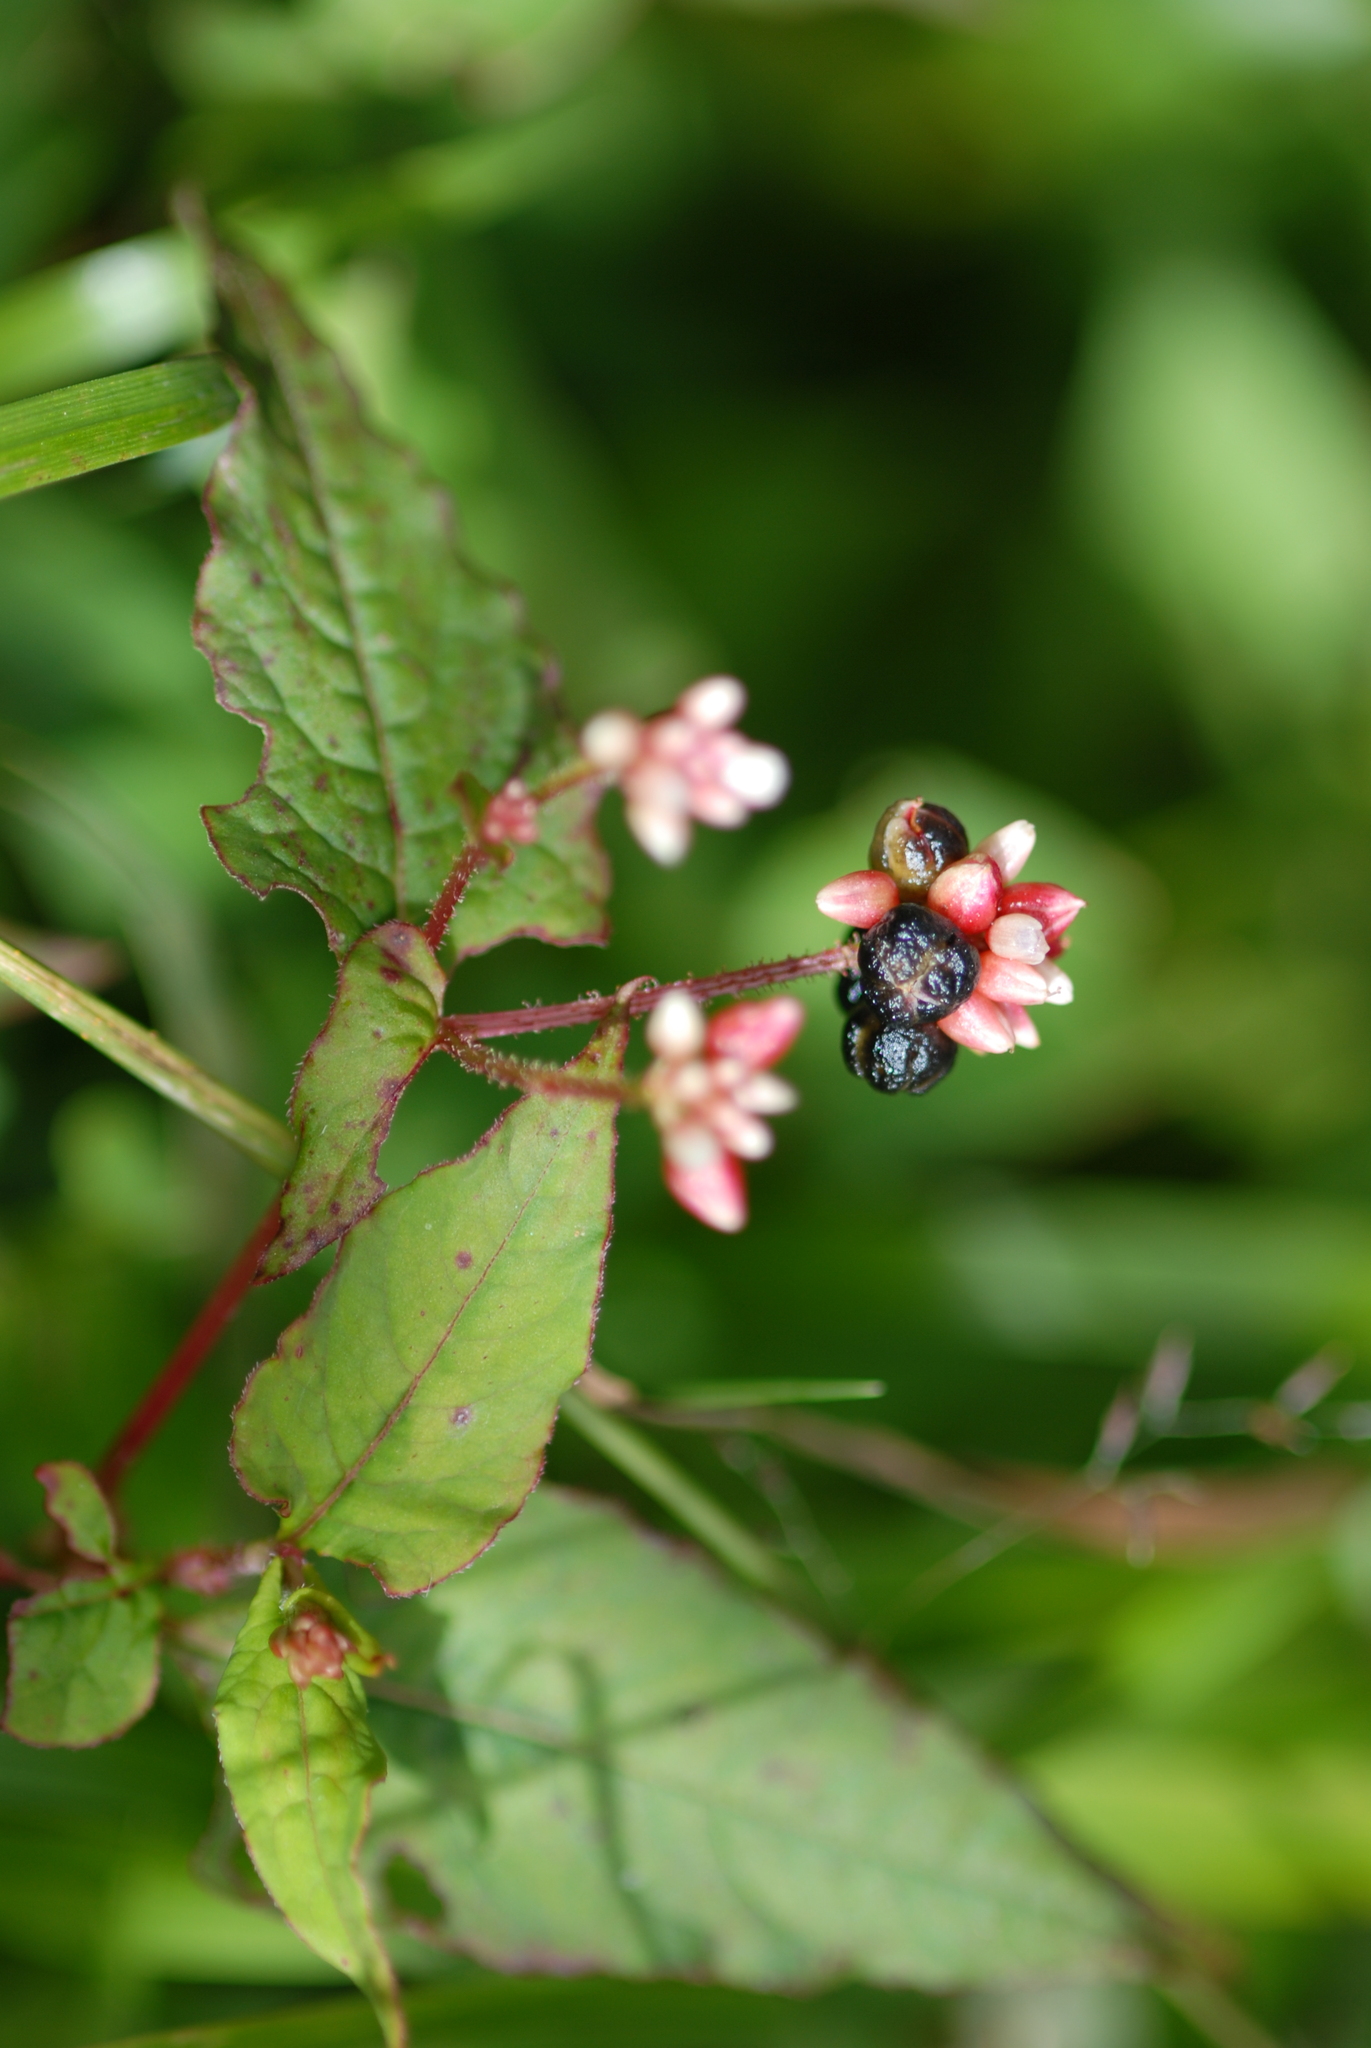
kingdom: Plantae
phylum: Tracheophyta
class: Magnoliopsida
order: Caryophyllales
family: Polygonaceae
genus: Persicaria
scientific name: Persicaria chinensis
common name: Chinese knotweed
